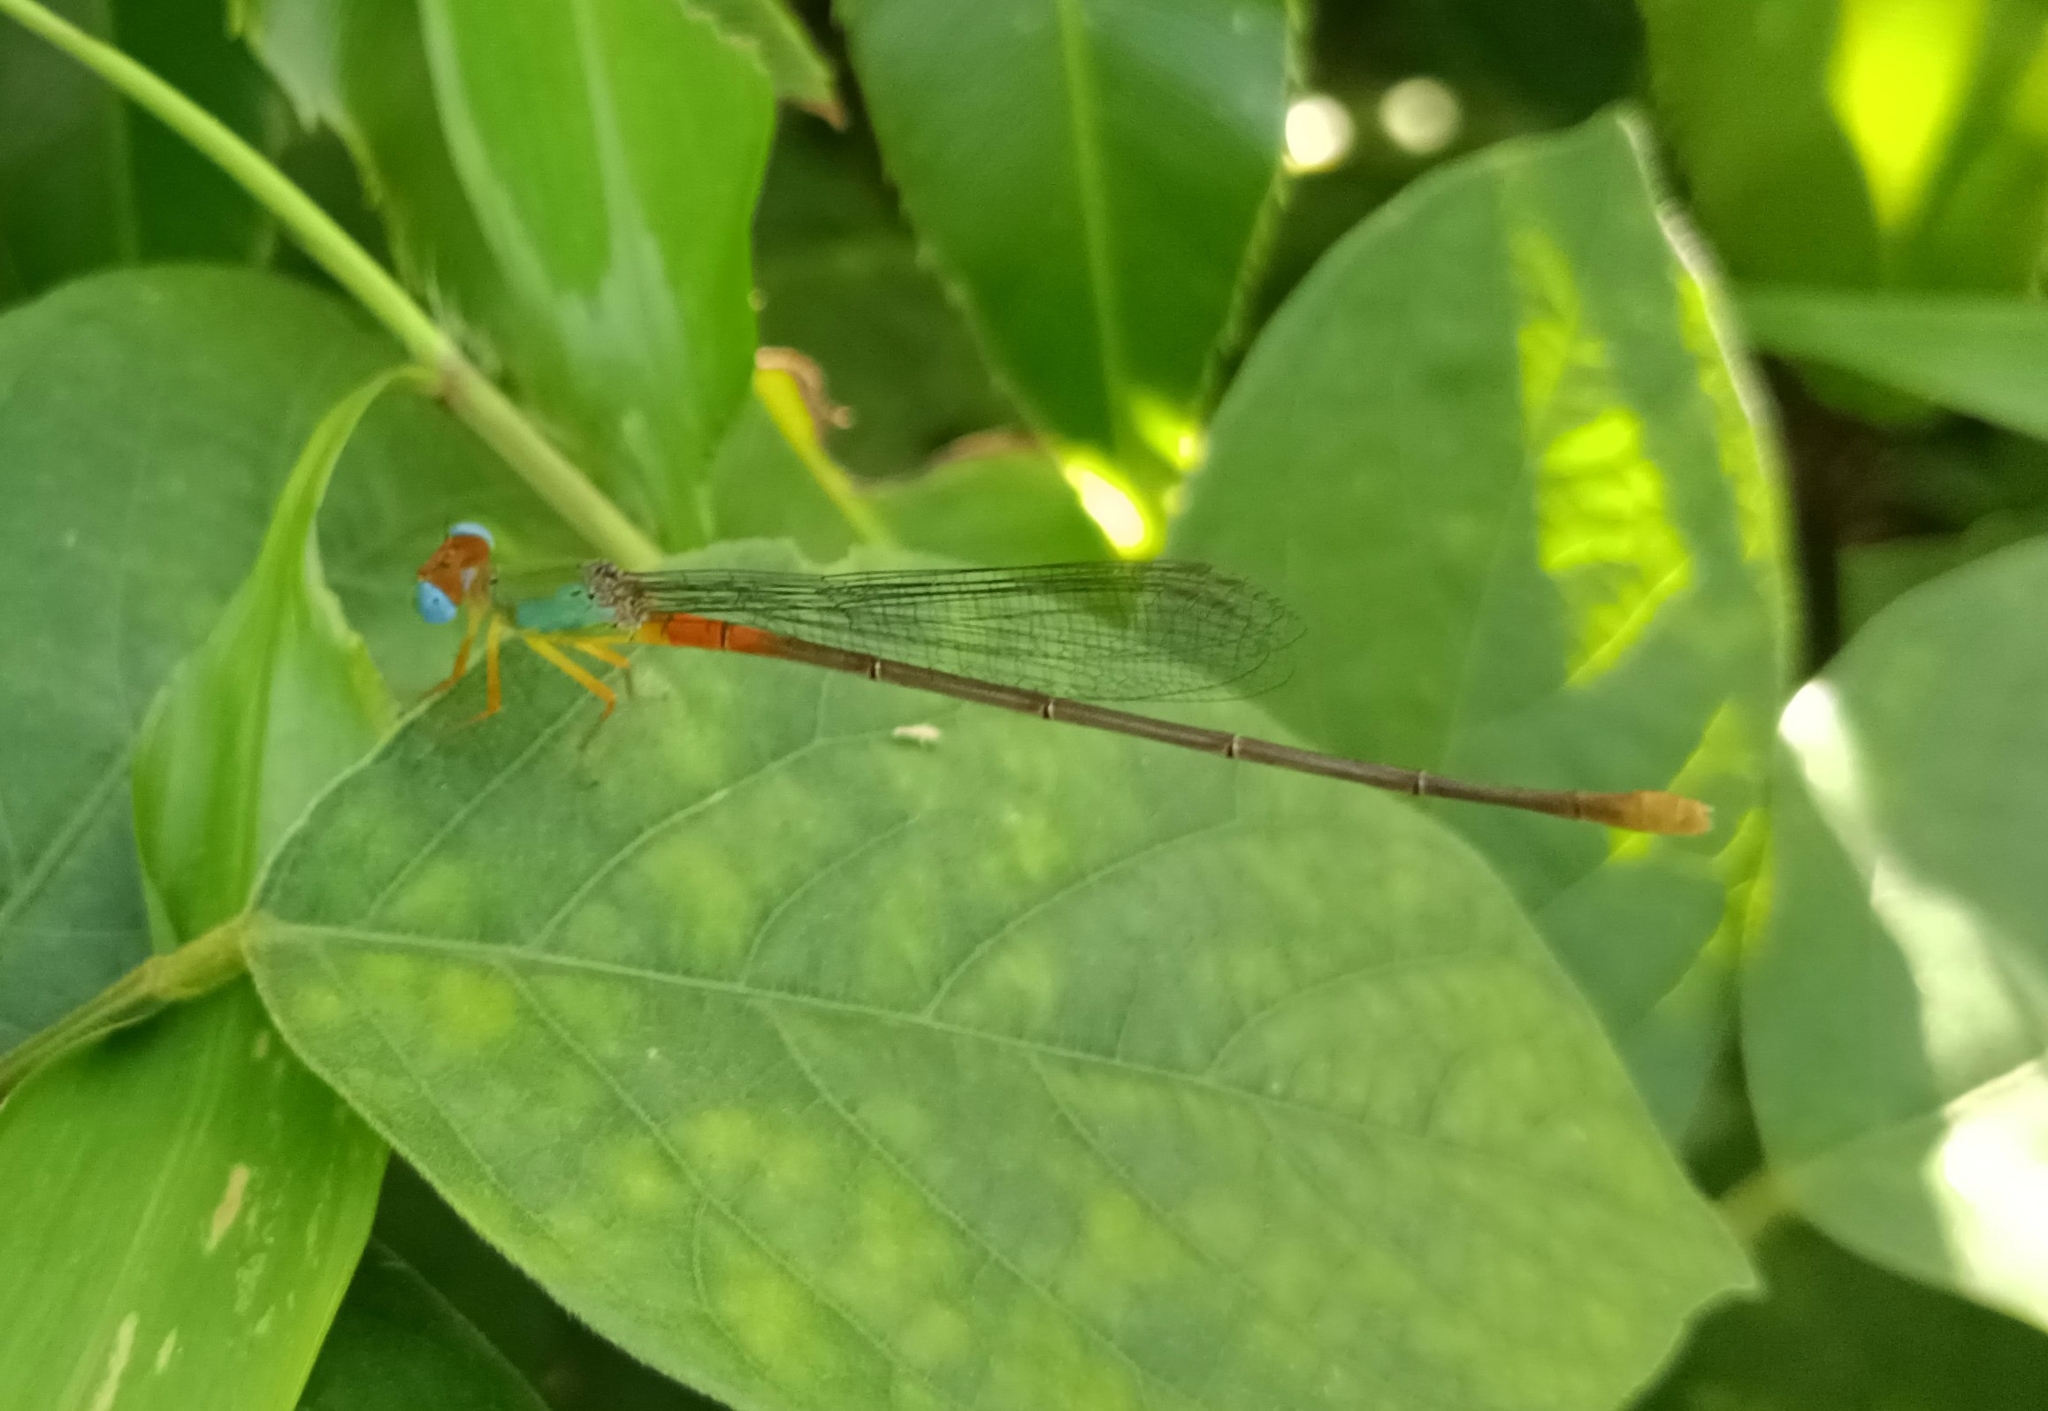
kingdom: Animalia
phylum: Arthropoda
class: Insecta
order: Odonata
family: Coenagrionidae
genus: Ceriagrion
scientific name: Ceriagrion cerinorubellum
